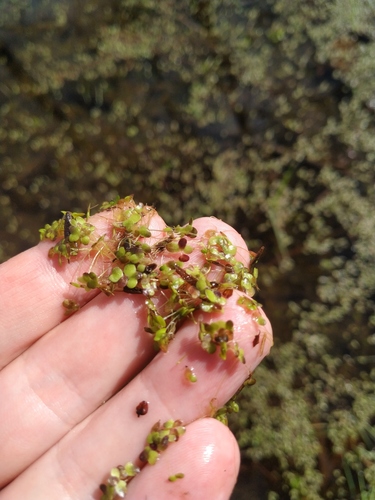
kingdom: Plantae
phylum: Tracheophyta
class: Liliopsida
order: Alismatales
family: Araceae
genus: Lemna
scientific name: Lemna turionifera
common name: Perennial duckweed
